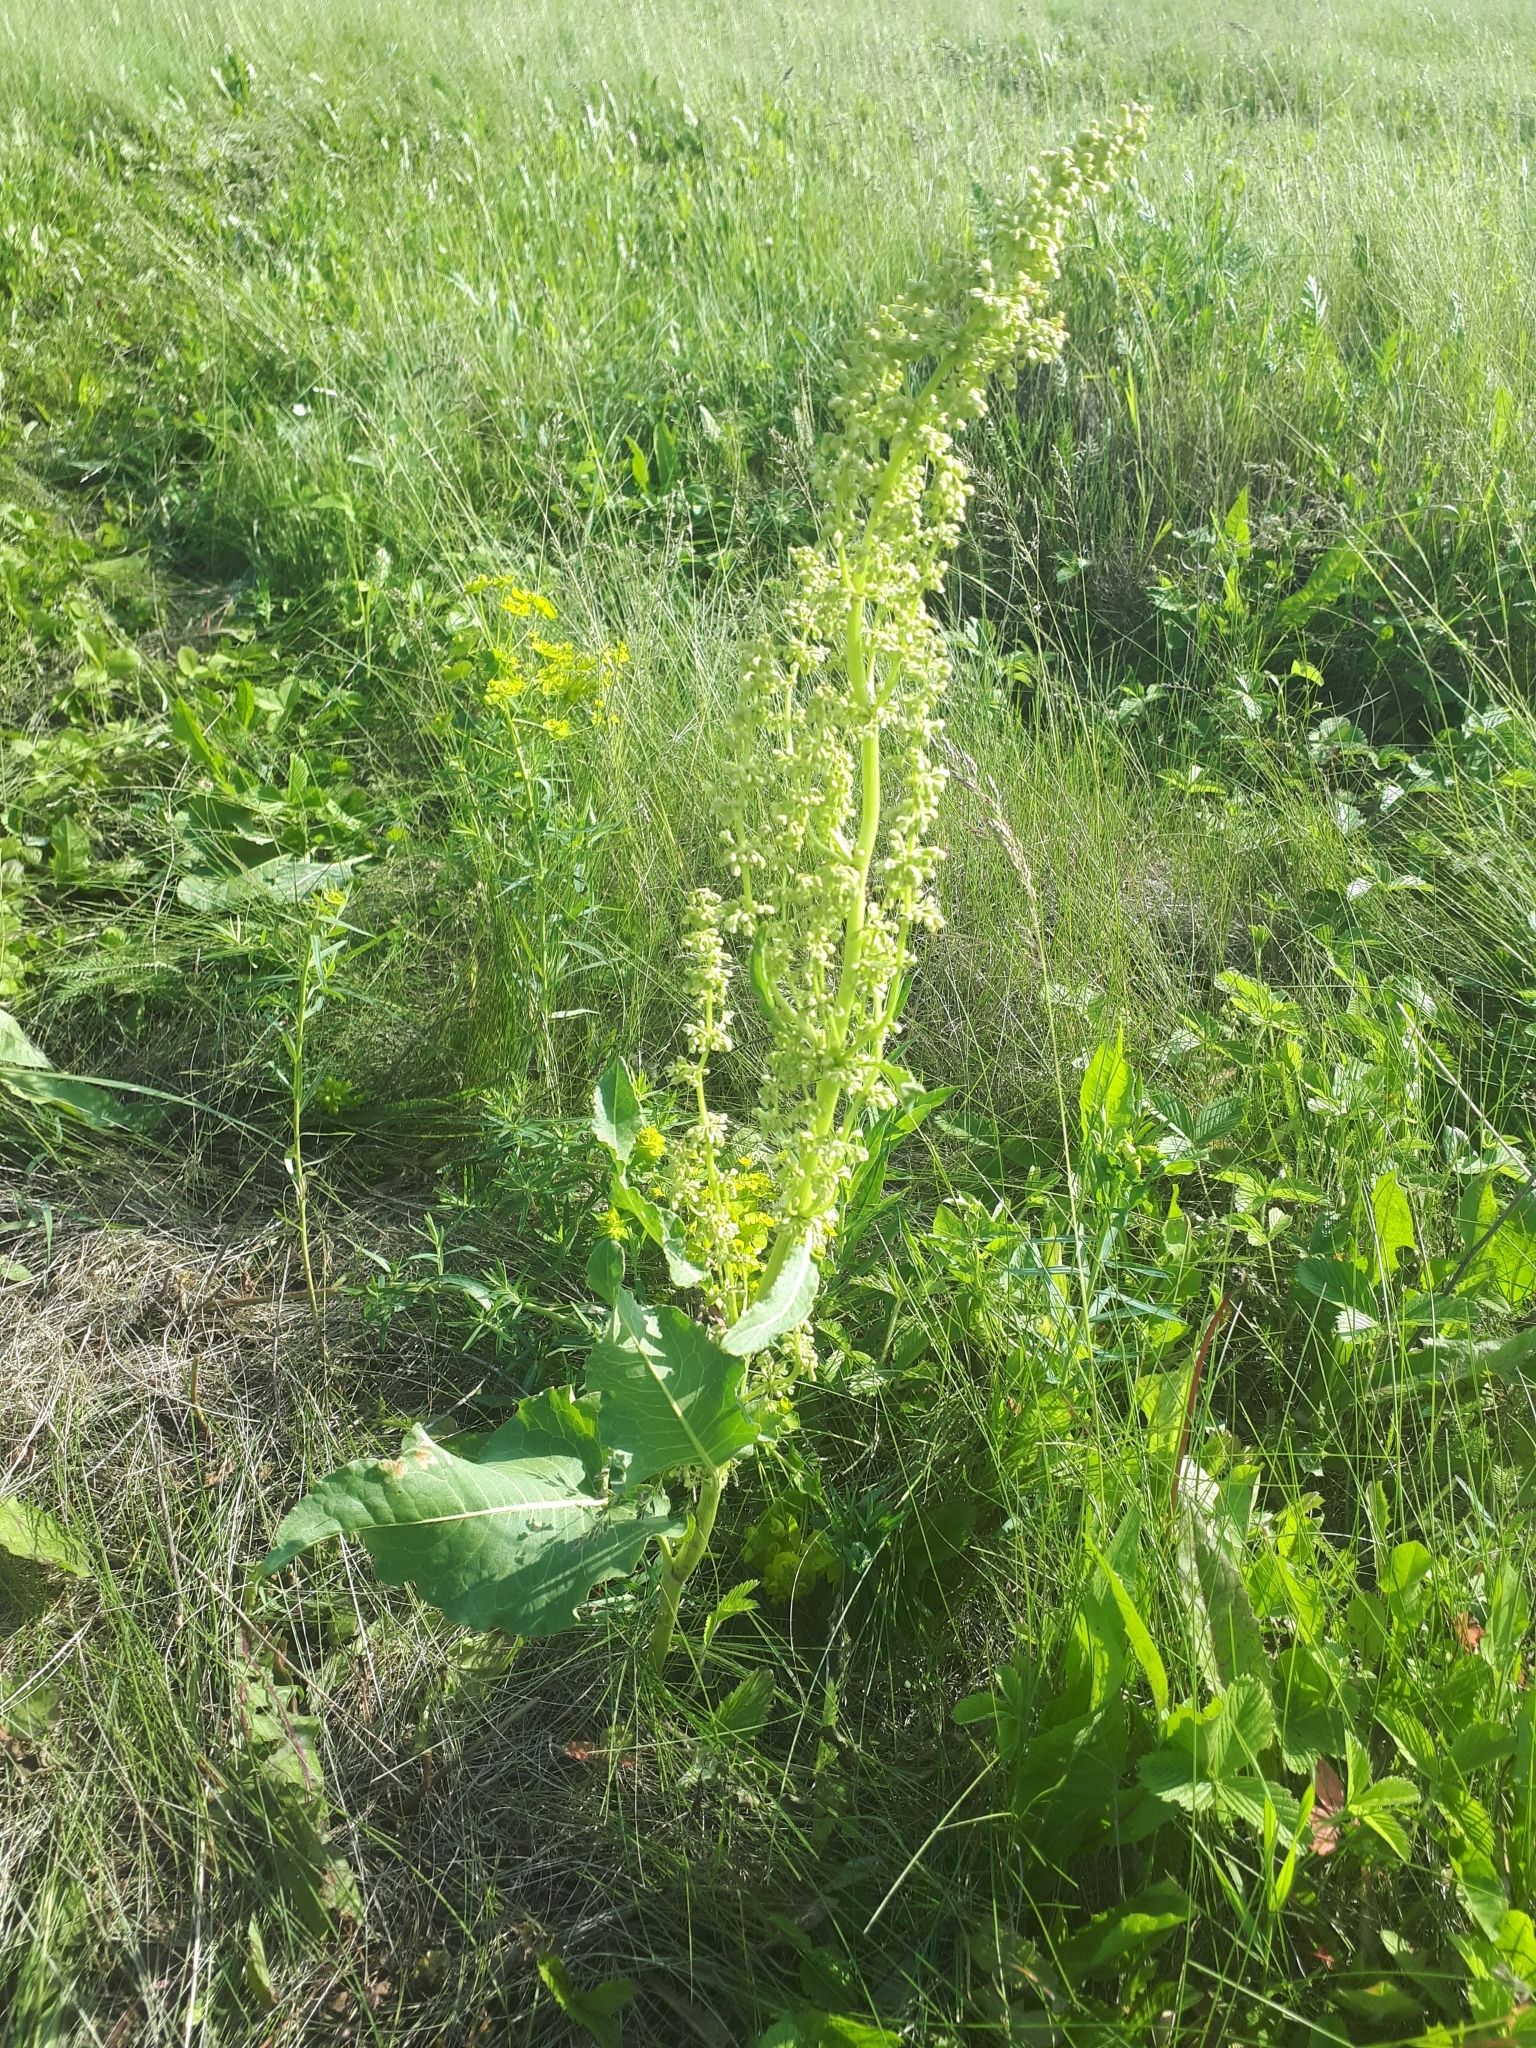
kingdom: Plantae
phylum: Tracheophyta
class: Magnoliopsida
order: Caryophyllales
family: Polygonaceae
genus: Rumex
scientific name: Rumex confertus
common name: Russian dock
